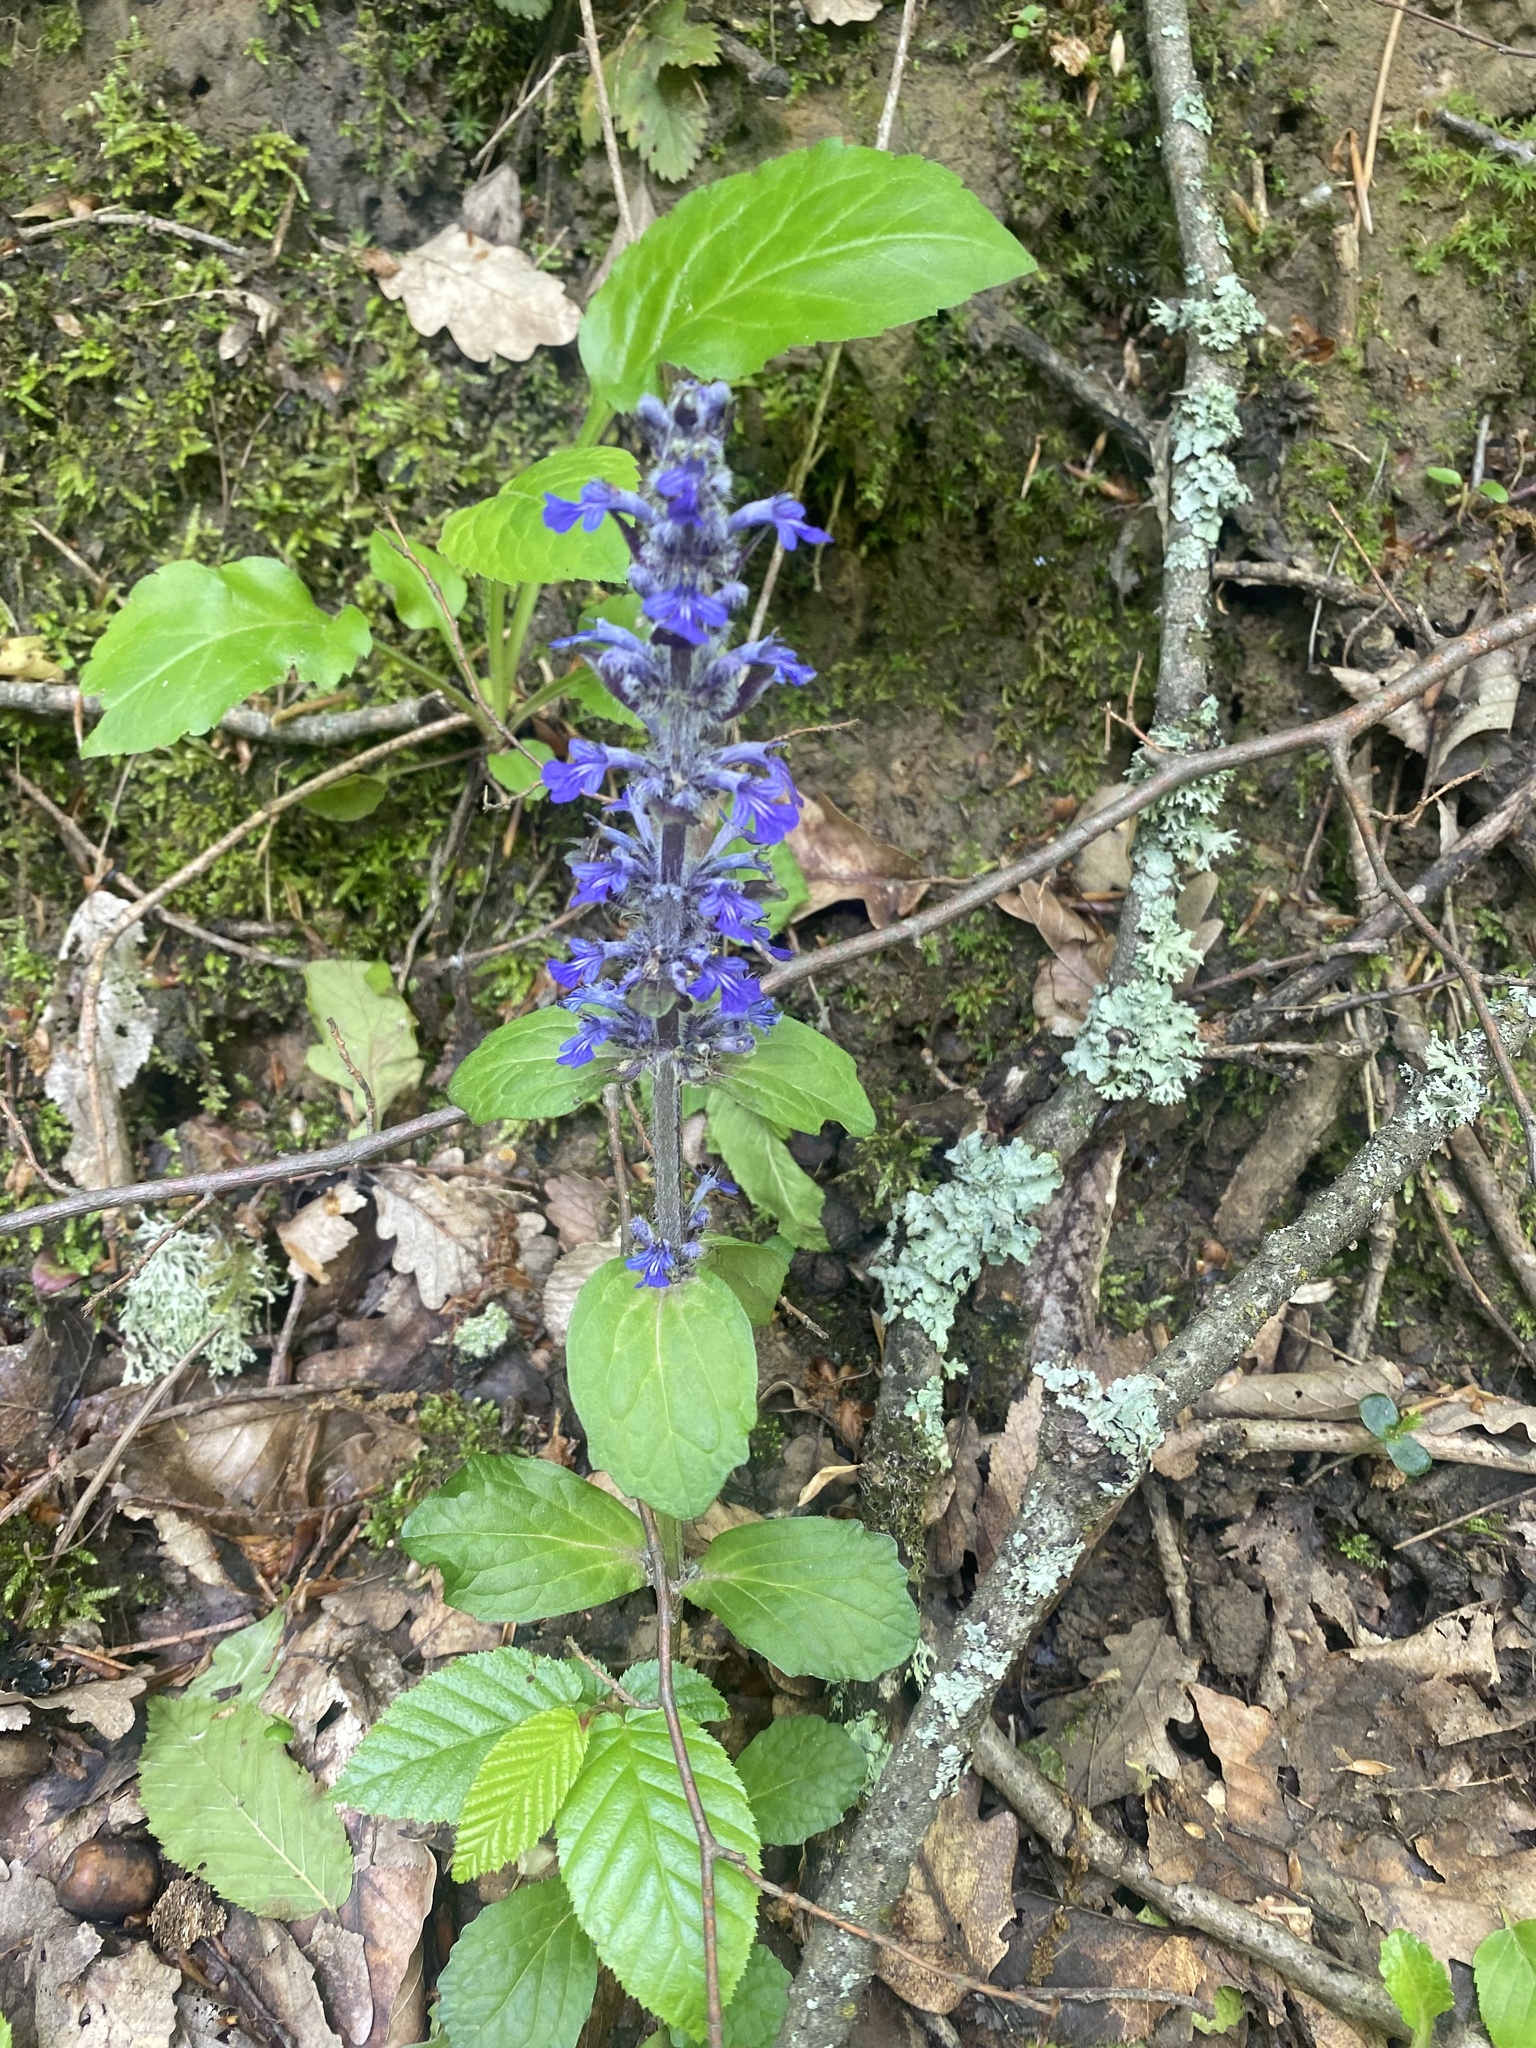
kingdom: Plantae
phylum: Tracheophyta
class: Magnoliopsida
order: Lamiales
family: Lamiaceae
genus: Ajuga
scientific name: Ajuga reptans
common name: Bugle
